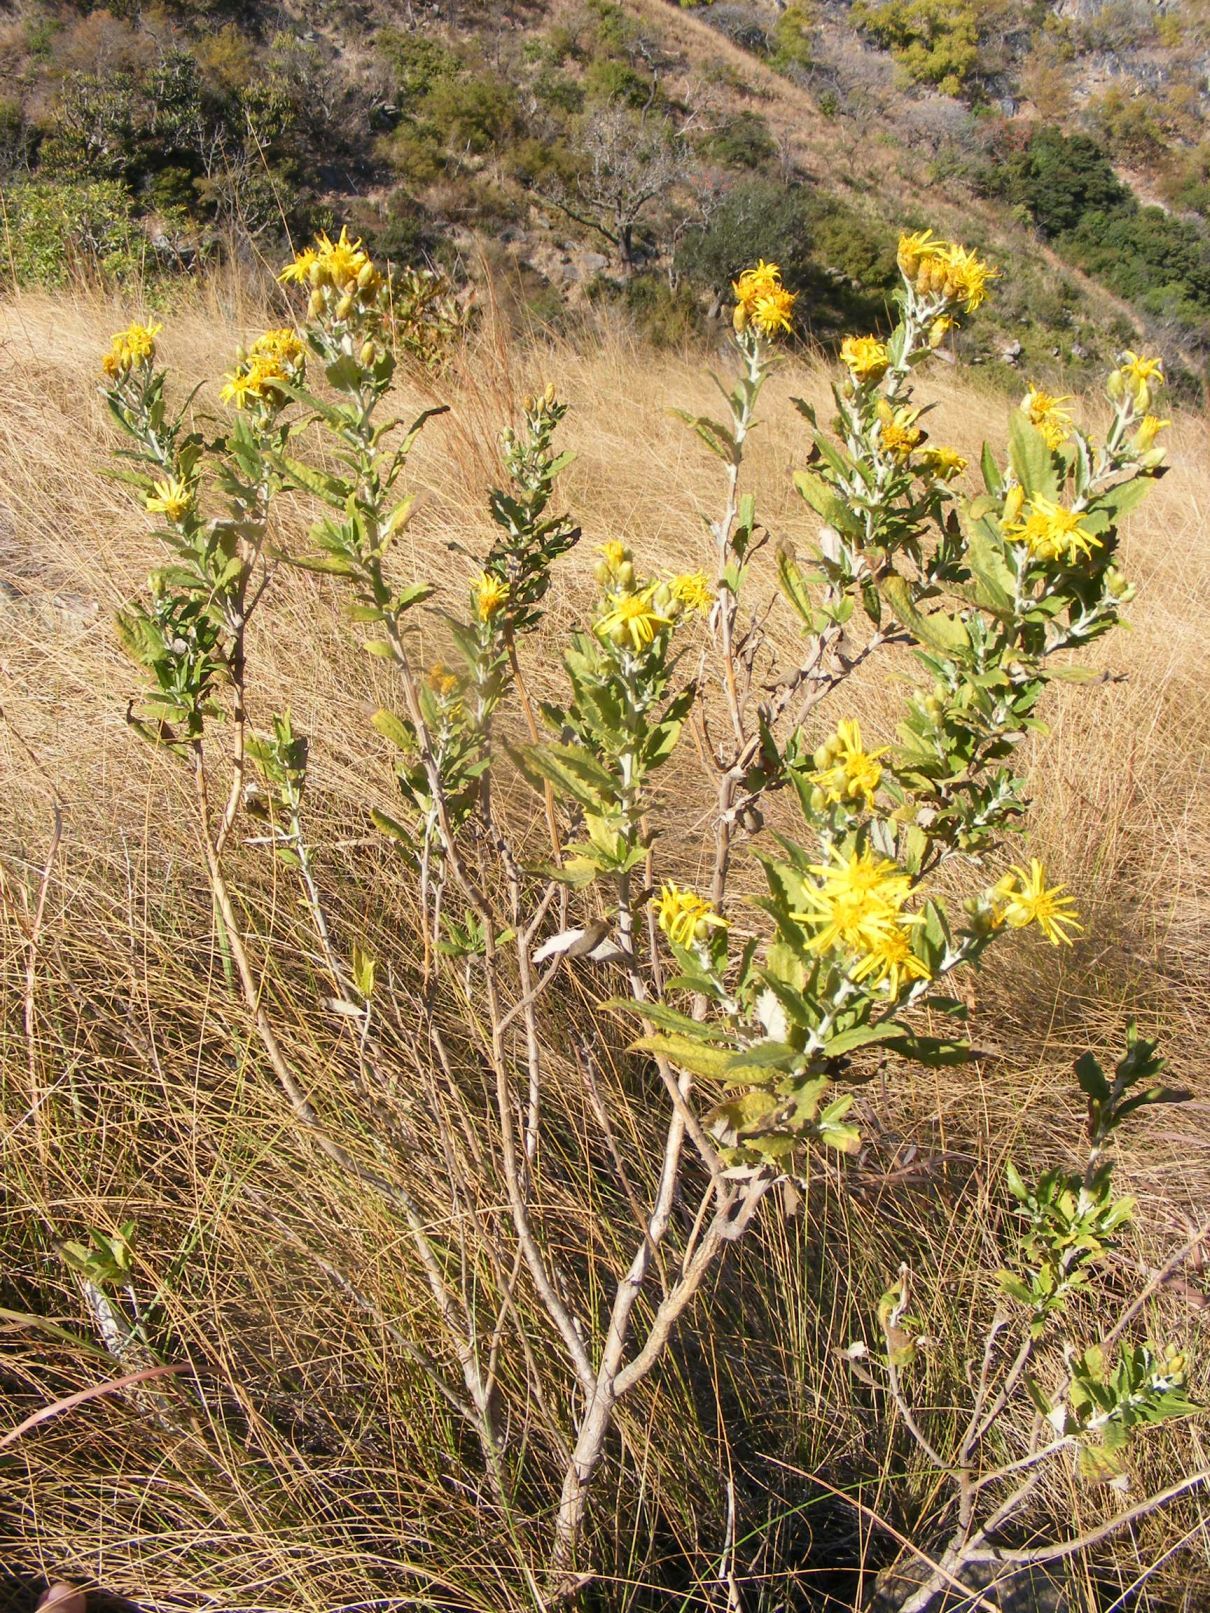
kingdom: Plantae
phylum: Tracheophyta
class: Magnoliopsida
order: Asterales
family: Asteraceae
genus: Anisopappus
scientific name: Anisopappus smutsii
